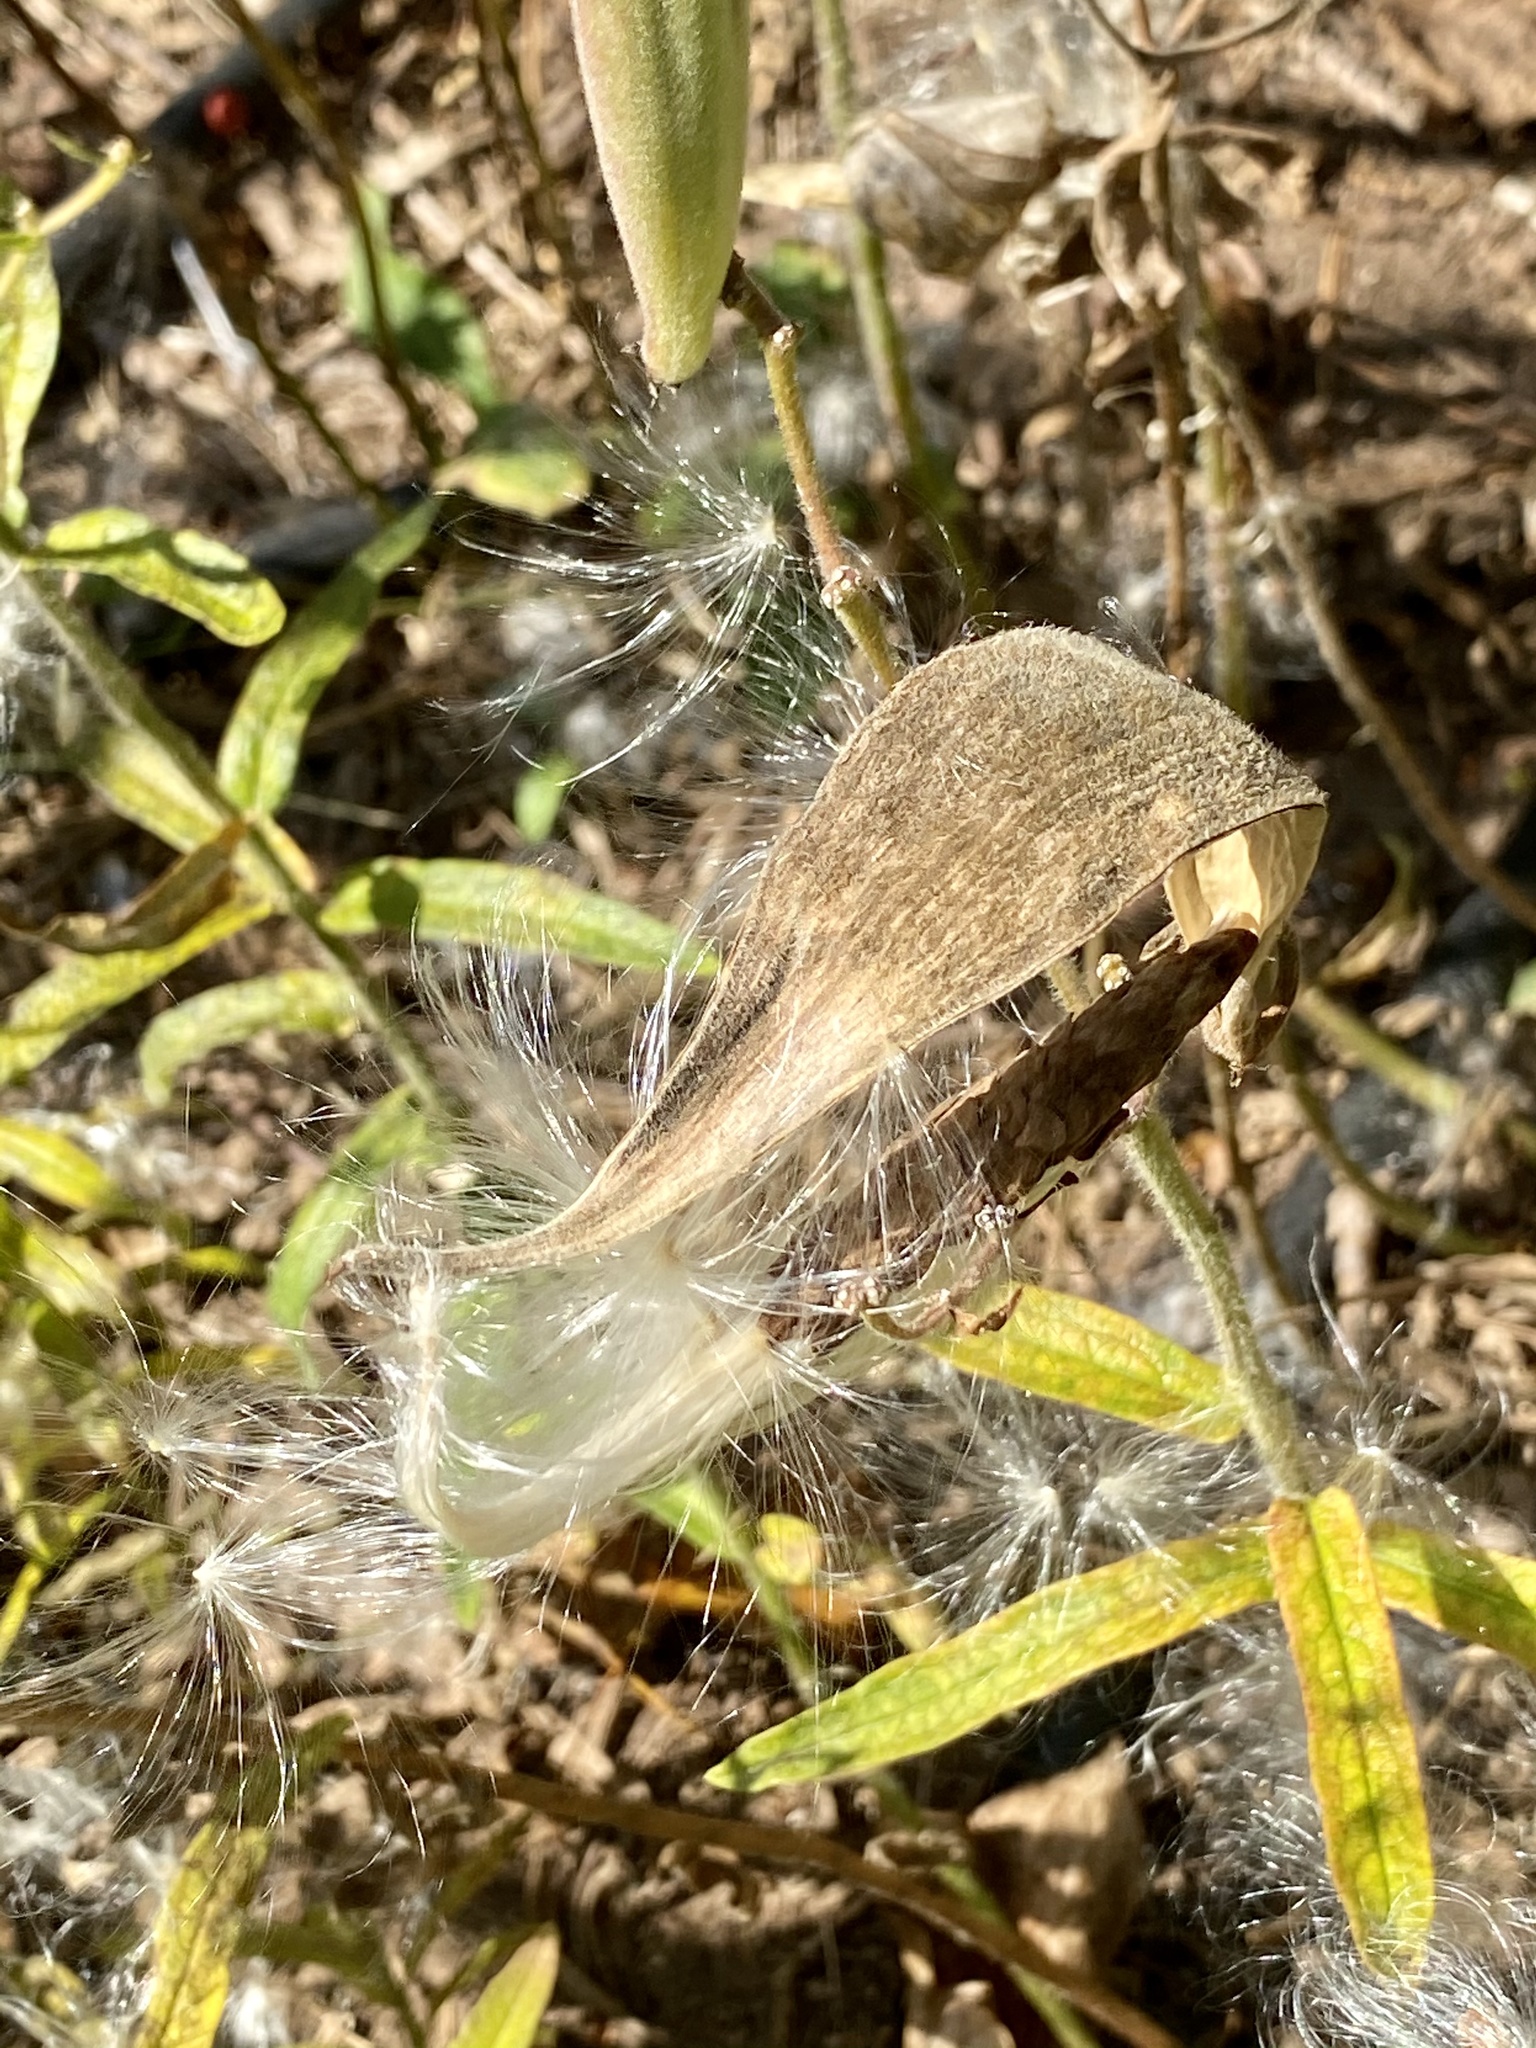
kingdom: Plantae
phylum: Tracheophyta
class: Magnoliopsida
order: Gentianales
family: Apocynaceae
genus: Asclepias
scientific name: Asclepias tuberosa
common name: Butterfly milkweed
